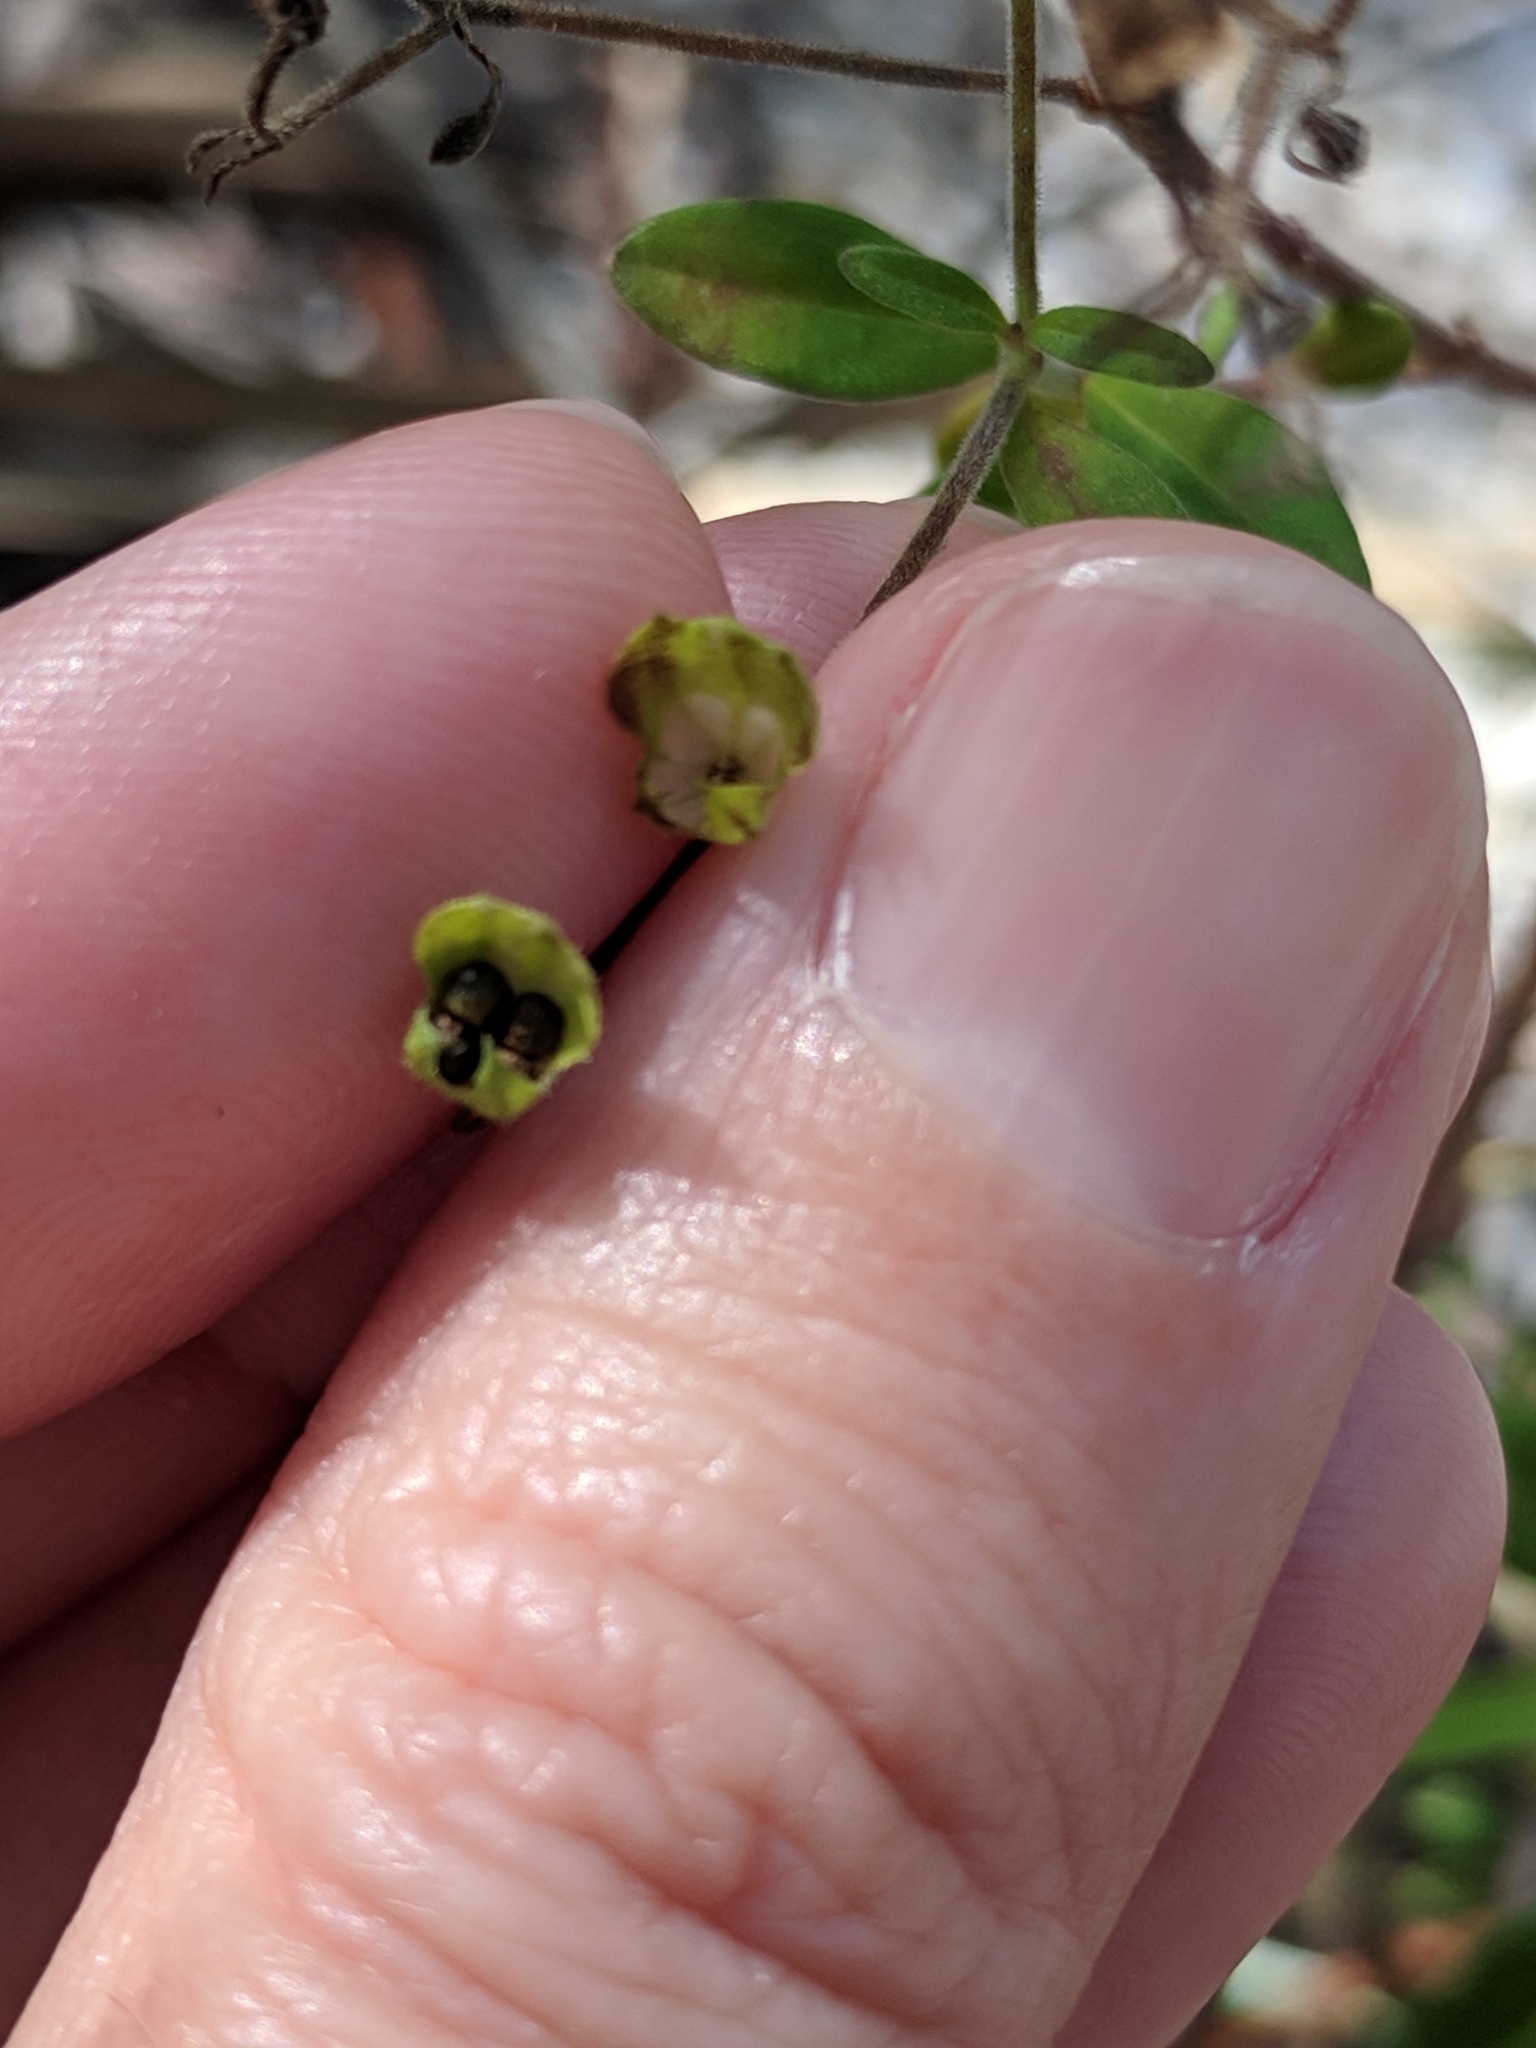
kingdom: Plantae
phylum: Tracheophyta
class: Magnoliopsida
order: Lamiales
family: Lamiaceae
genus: Trichostema
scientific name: Trichostema
